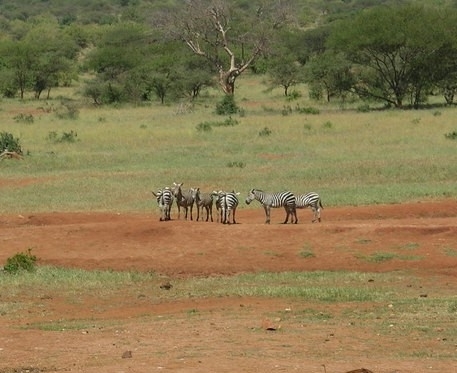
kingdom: Animalia
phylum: Chordata
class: Mammalia
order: Perissodactyla
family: Equidae
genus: Equus
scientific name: Equus quagga
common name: Plains zebra
